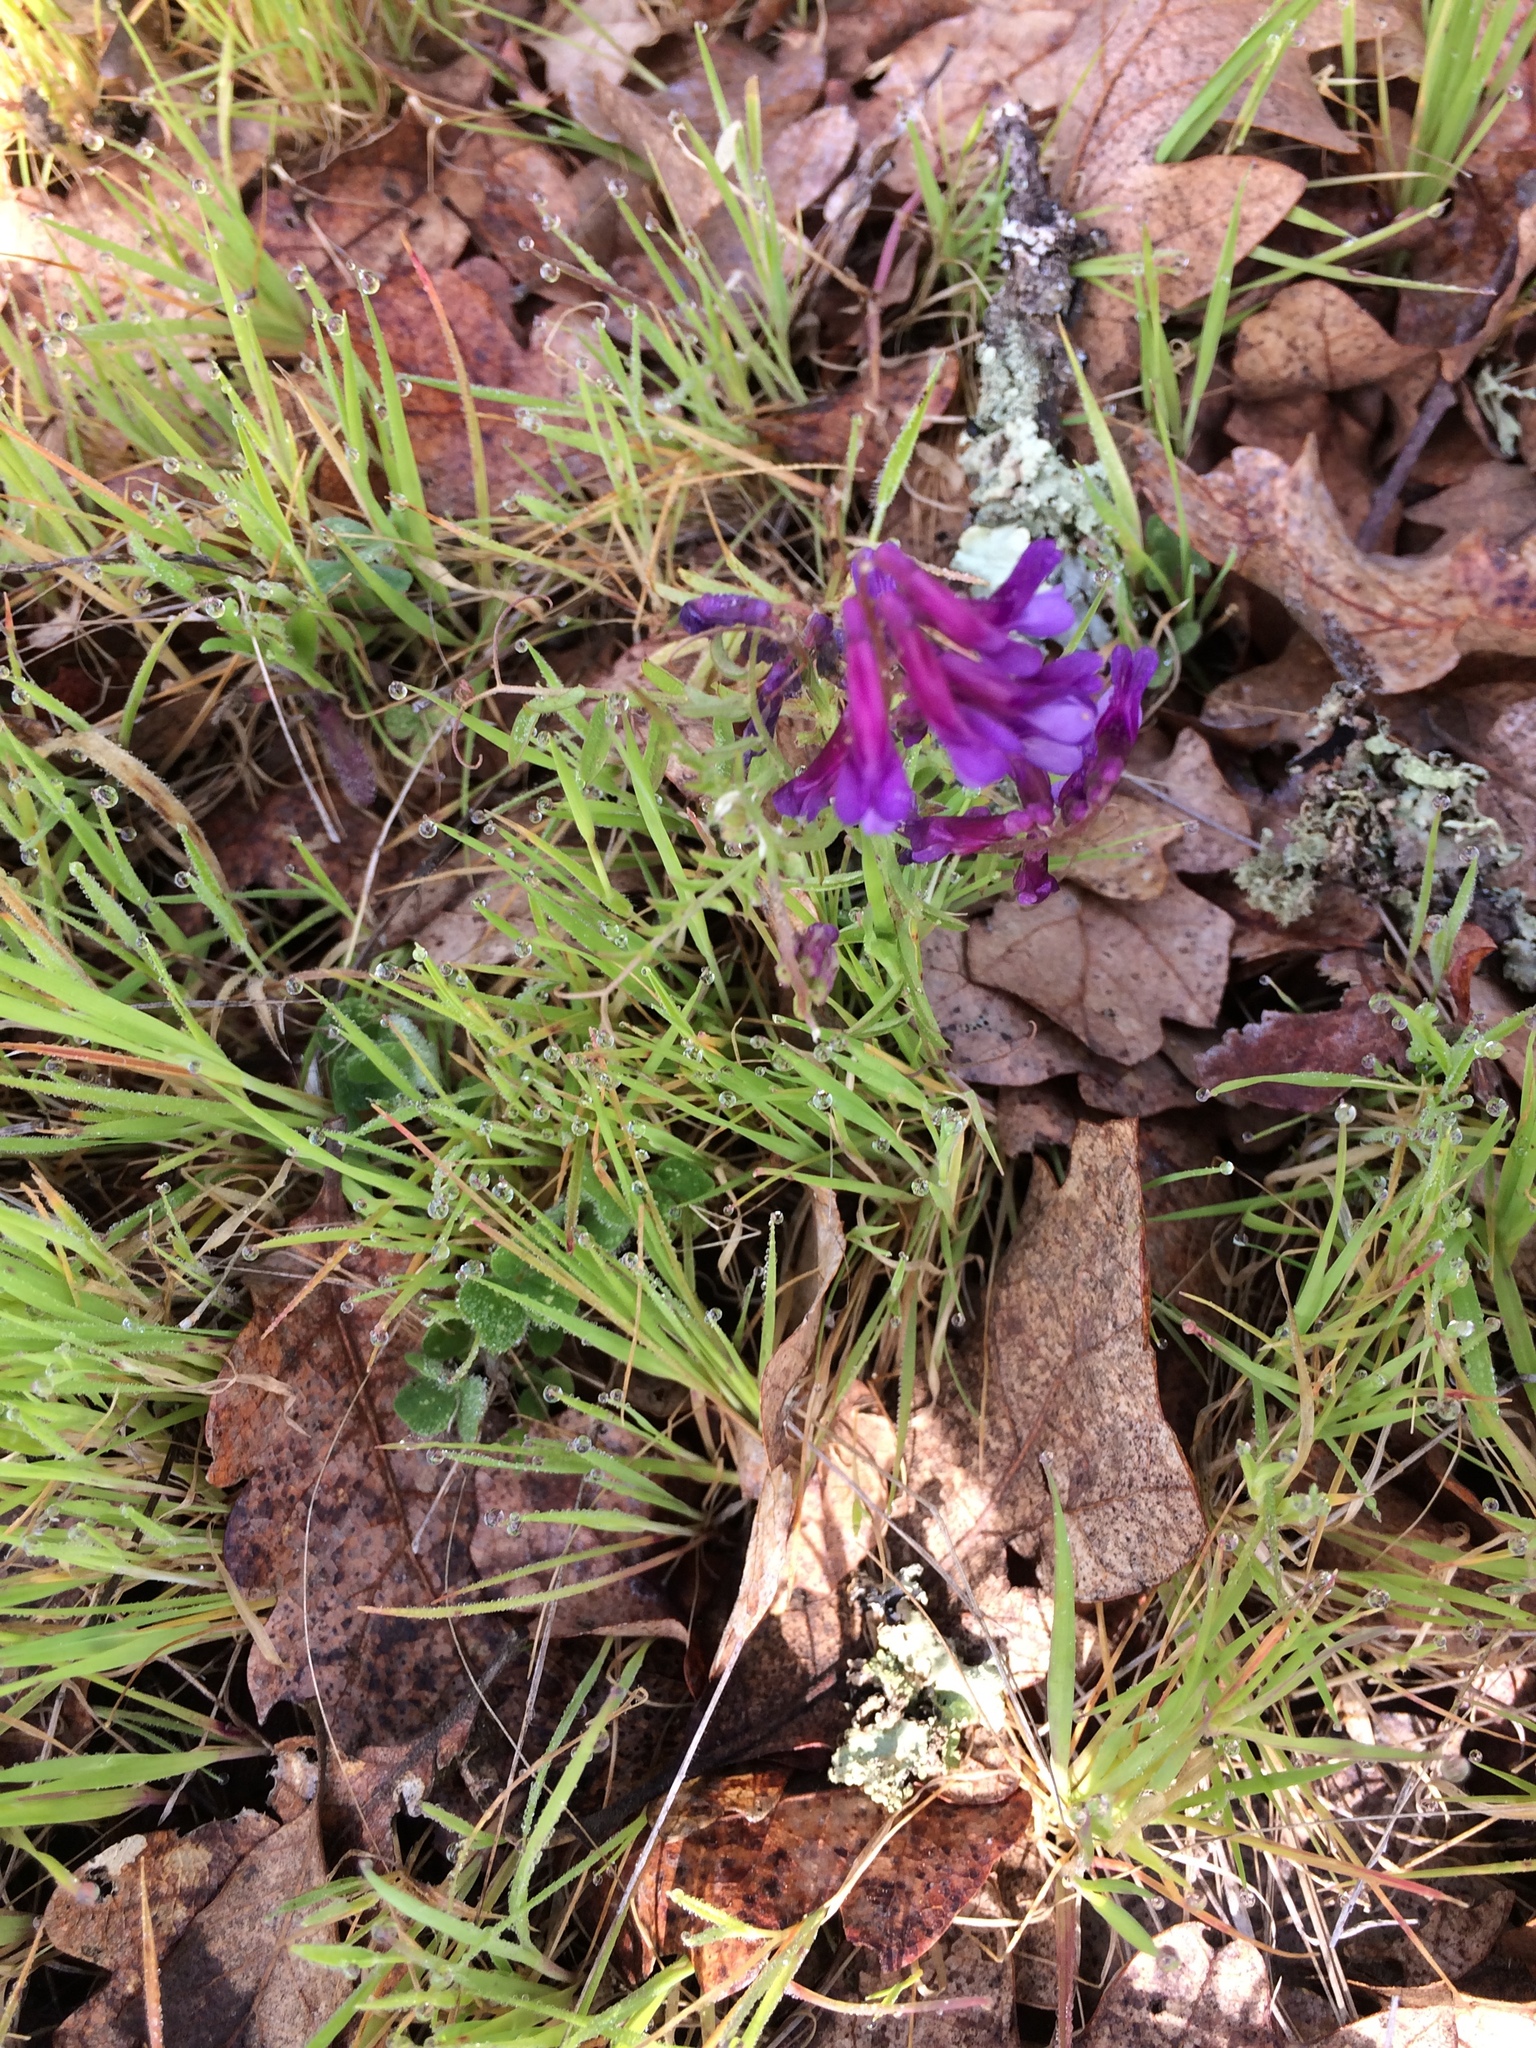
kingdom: Plantae
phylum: Tracheophyta
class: Magnoliopsida
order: Fabales
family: Fabaceae
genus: Vicia
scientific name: Vicia villosa
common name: Fodder vetch
